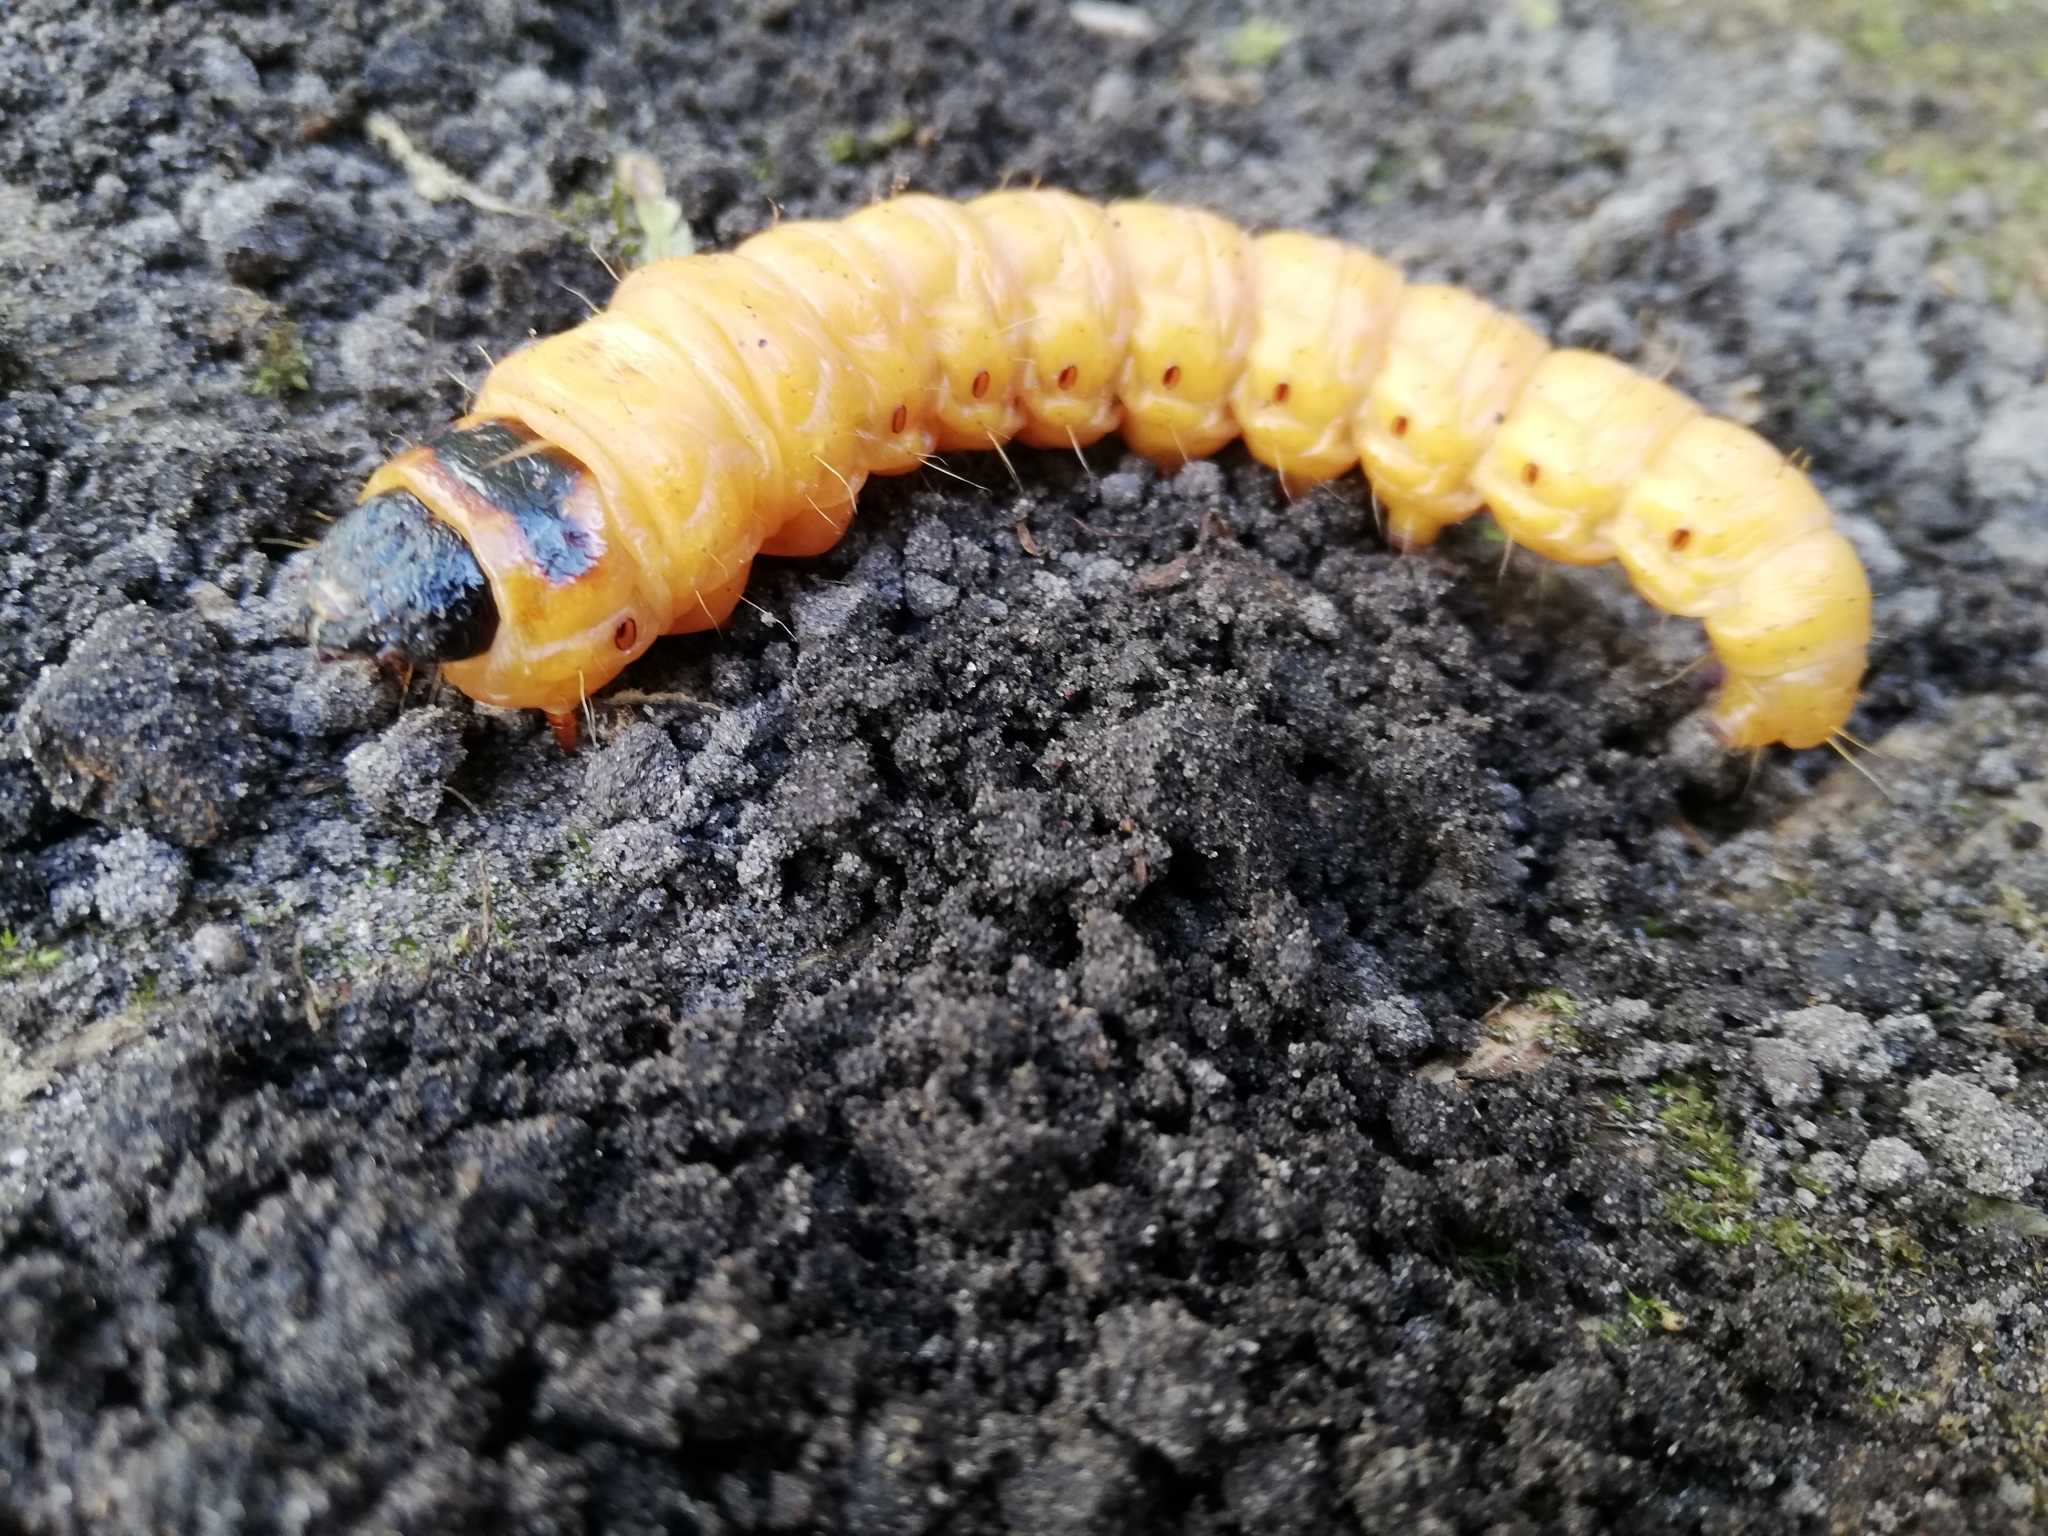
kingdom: Animalia
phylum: Arthropoda
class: Insecta
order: Lepidoptera
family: Cossidae
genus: Cossus
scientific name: Cossus cossus
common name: Goat moth
